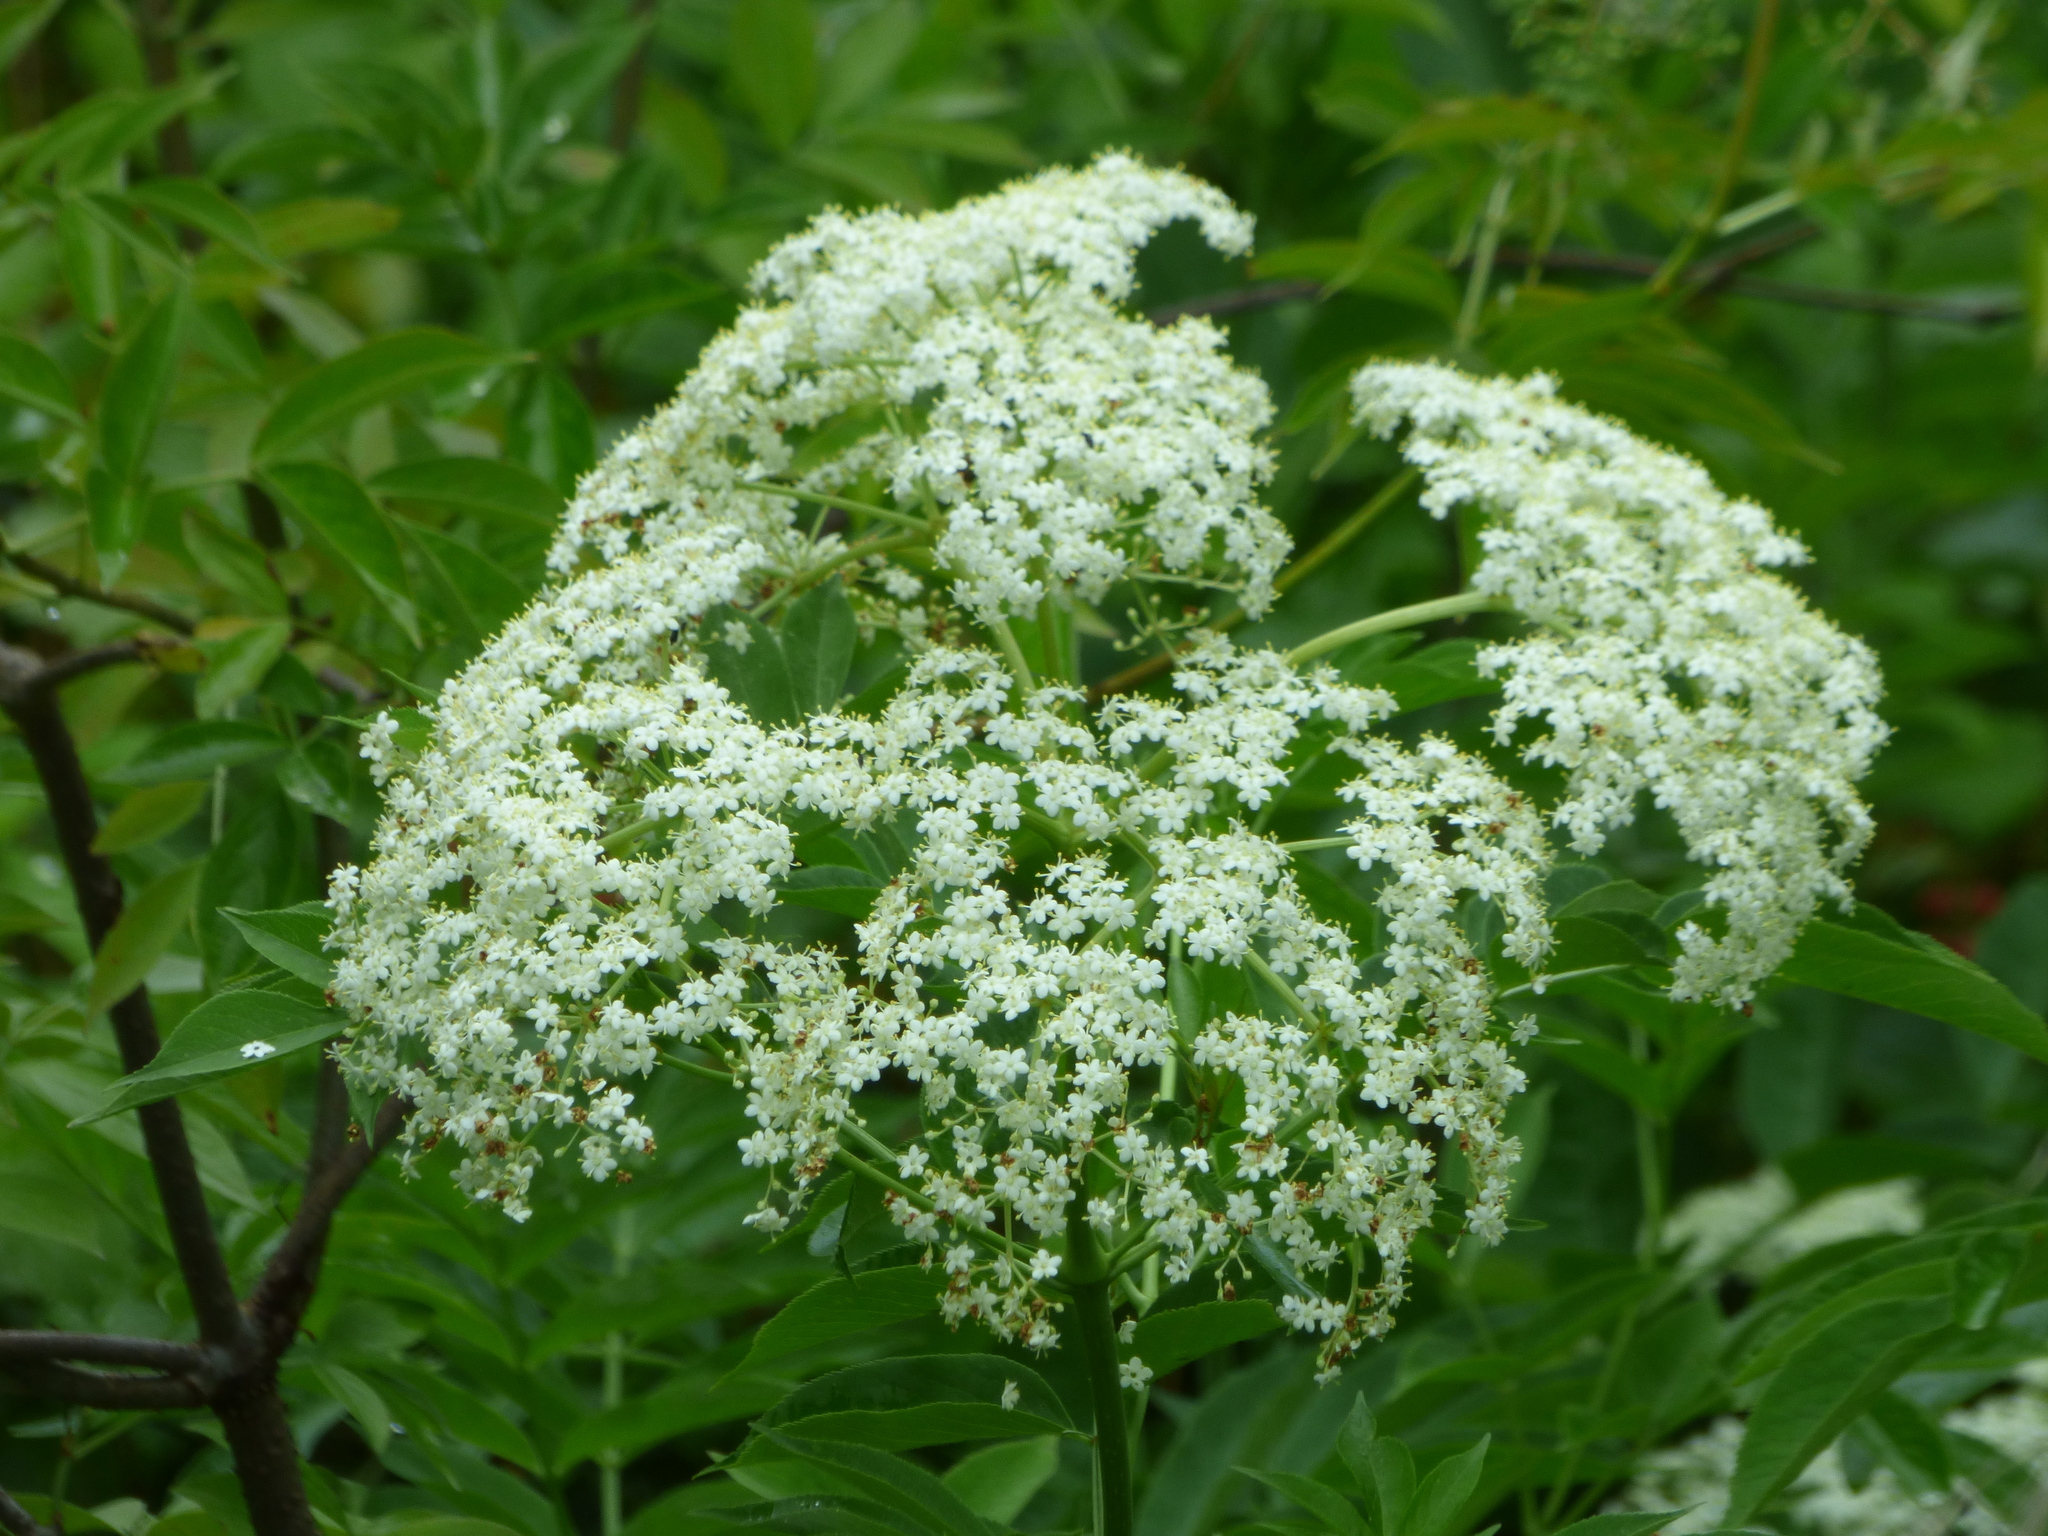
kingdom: Plantae
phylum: Tracheophyta
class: Magnoliopsida
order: Dipsacales
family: Viburnaceae
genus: Sambucus
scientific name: Sambucus canadensis
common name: American elder
